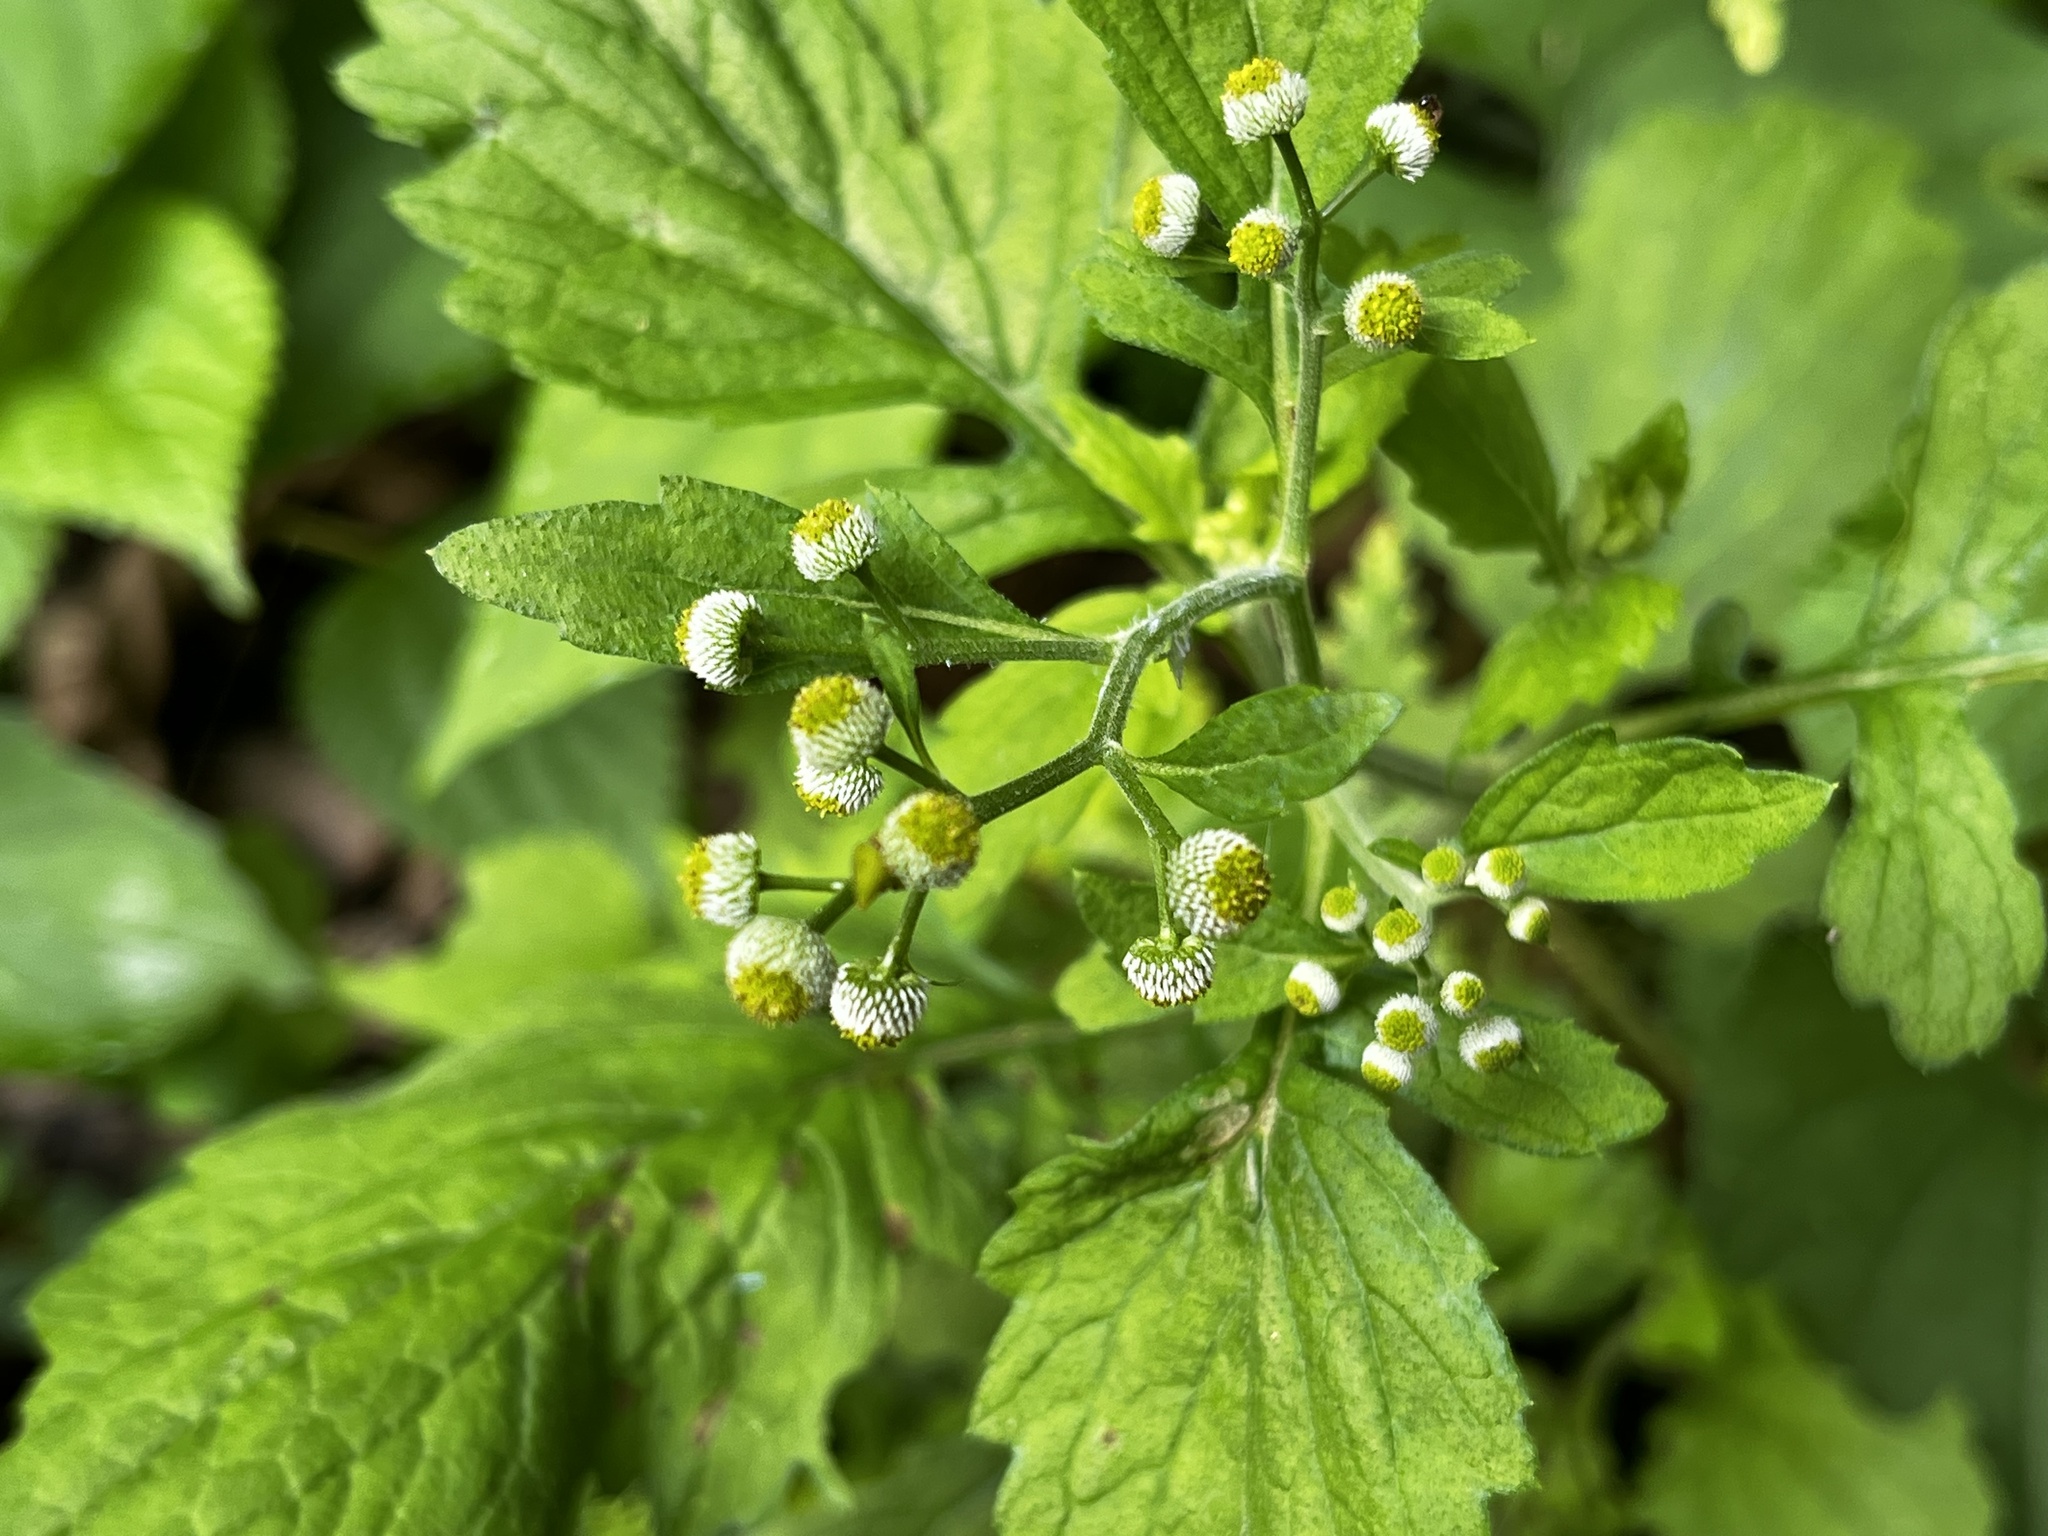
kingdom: Plantae
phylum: Tracheophyta
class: Magnoliopsida
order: Asterales
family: Asteraceae
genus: Dichrocephala
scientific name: Dichrocephala integrifolia
